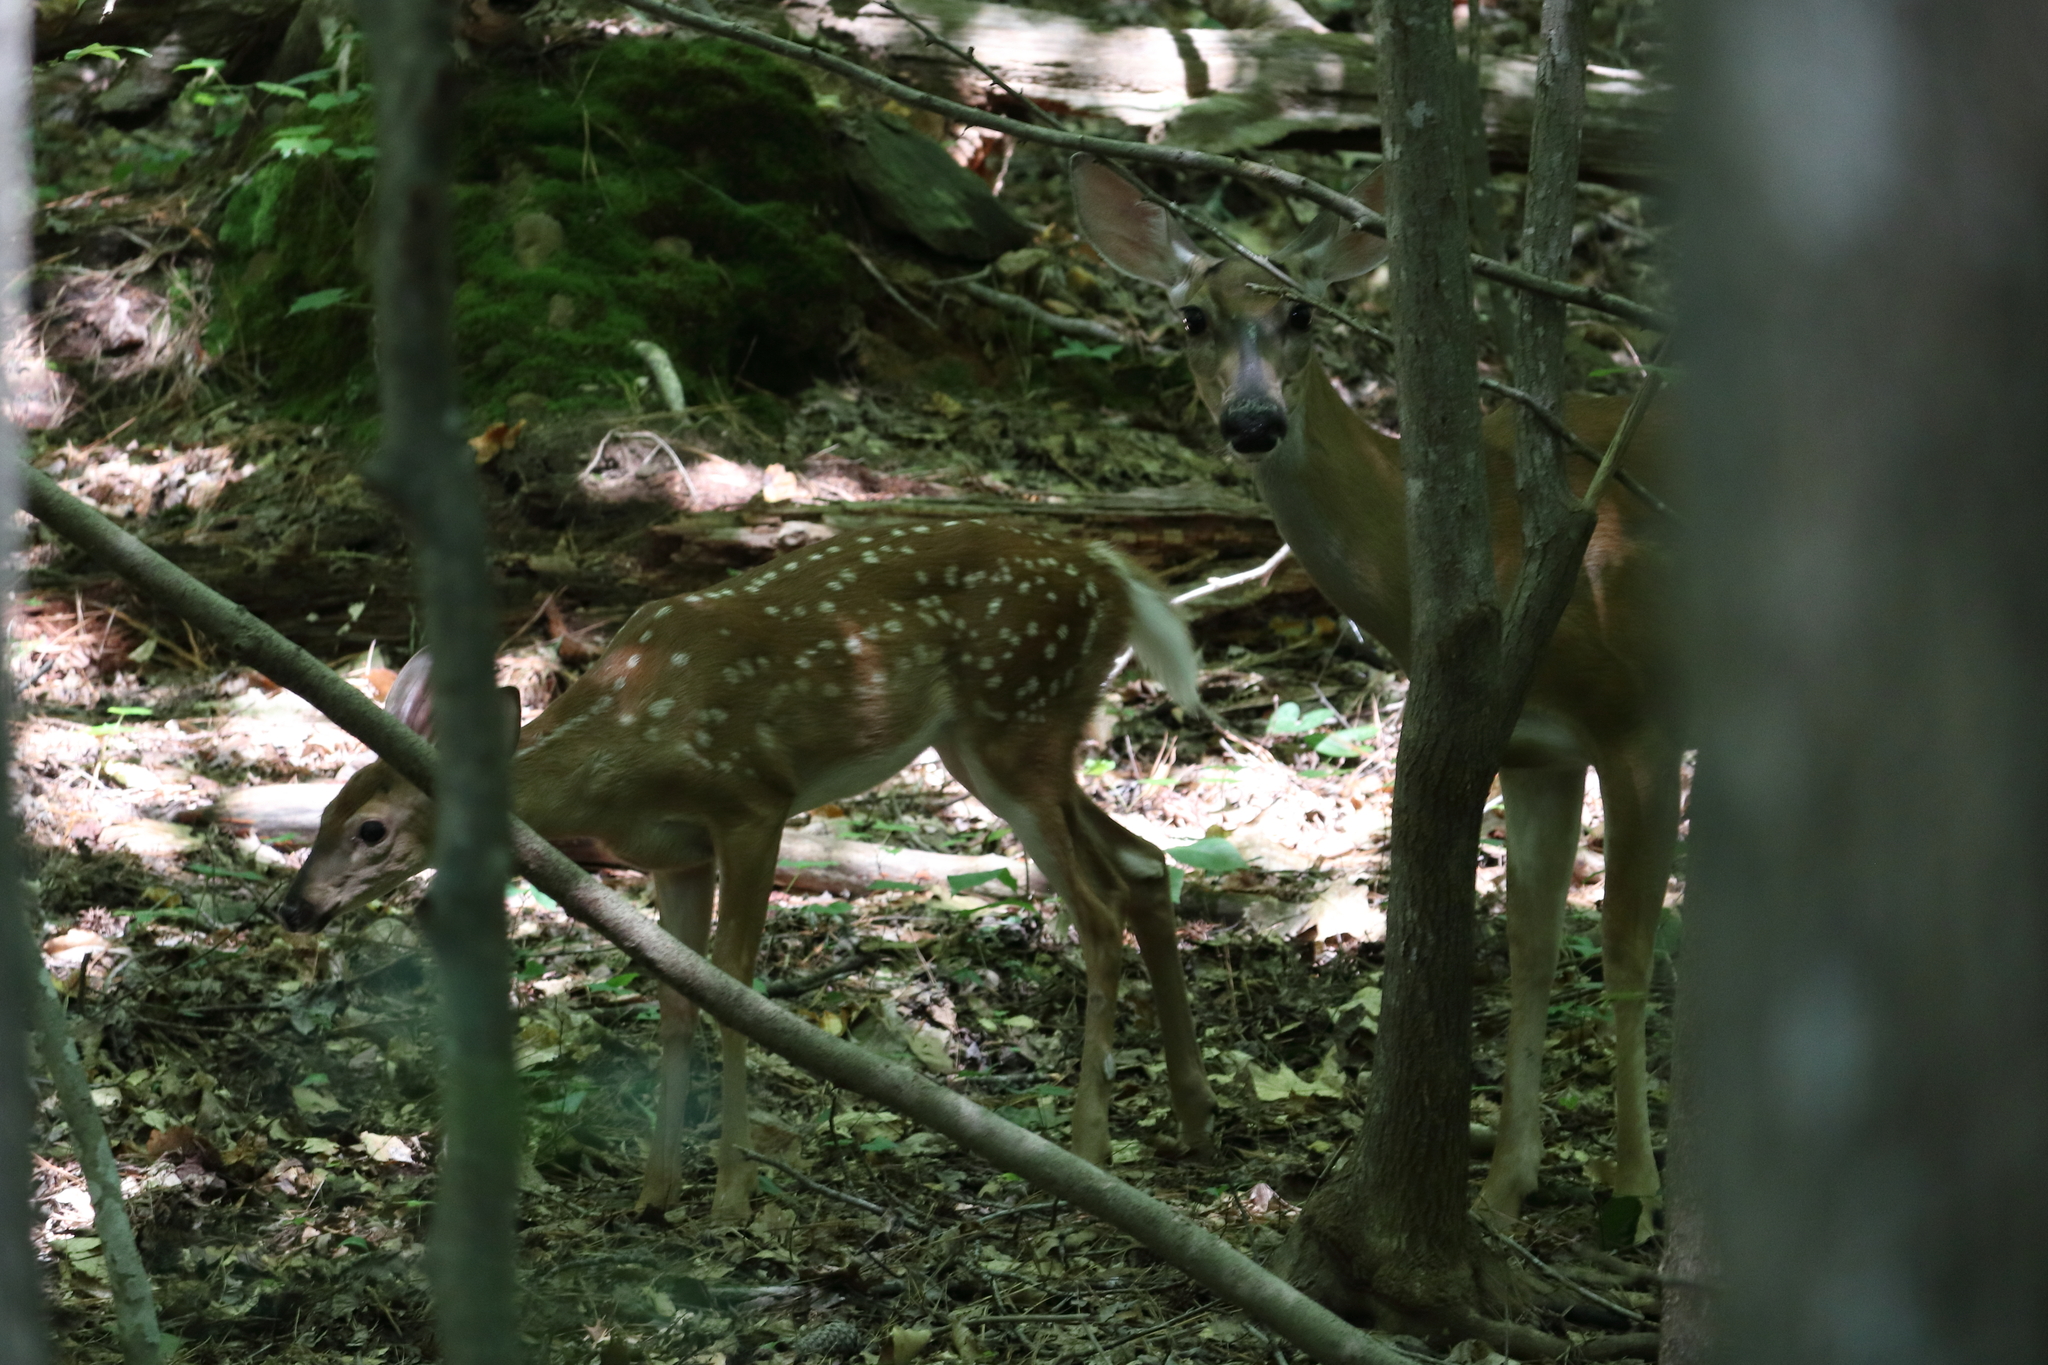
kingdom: Animalia
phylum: Chordata
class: Mammalia
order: Artiodactyla
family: Cervidae
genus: Odocoileus
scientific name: Odocoileus virginianus
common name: White-tailed deer
